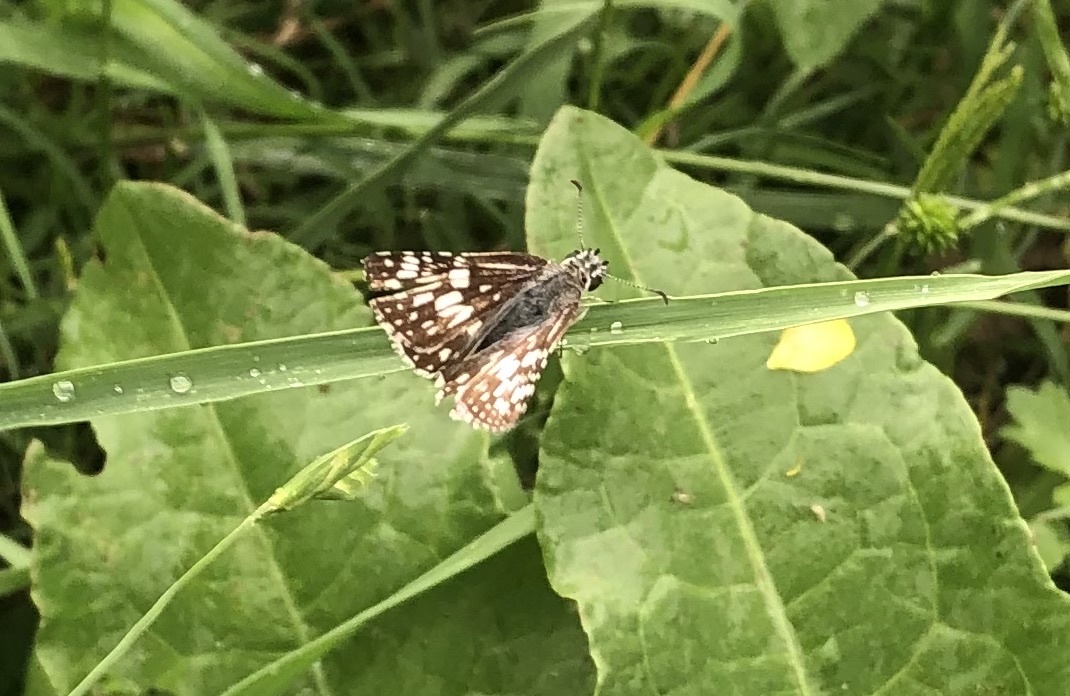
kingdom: Animalia
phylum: Arthropoda
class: Insecta
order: Lepidoptera
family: Hesperiidae
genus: Burnsius
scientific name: Burnsius communis
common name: Common checkered-skipper
